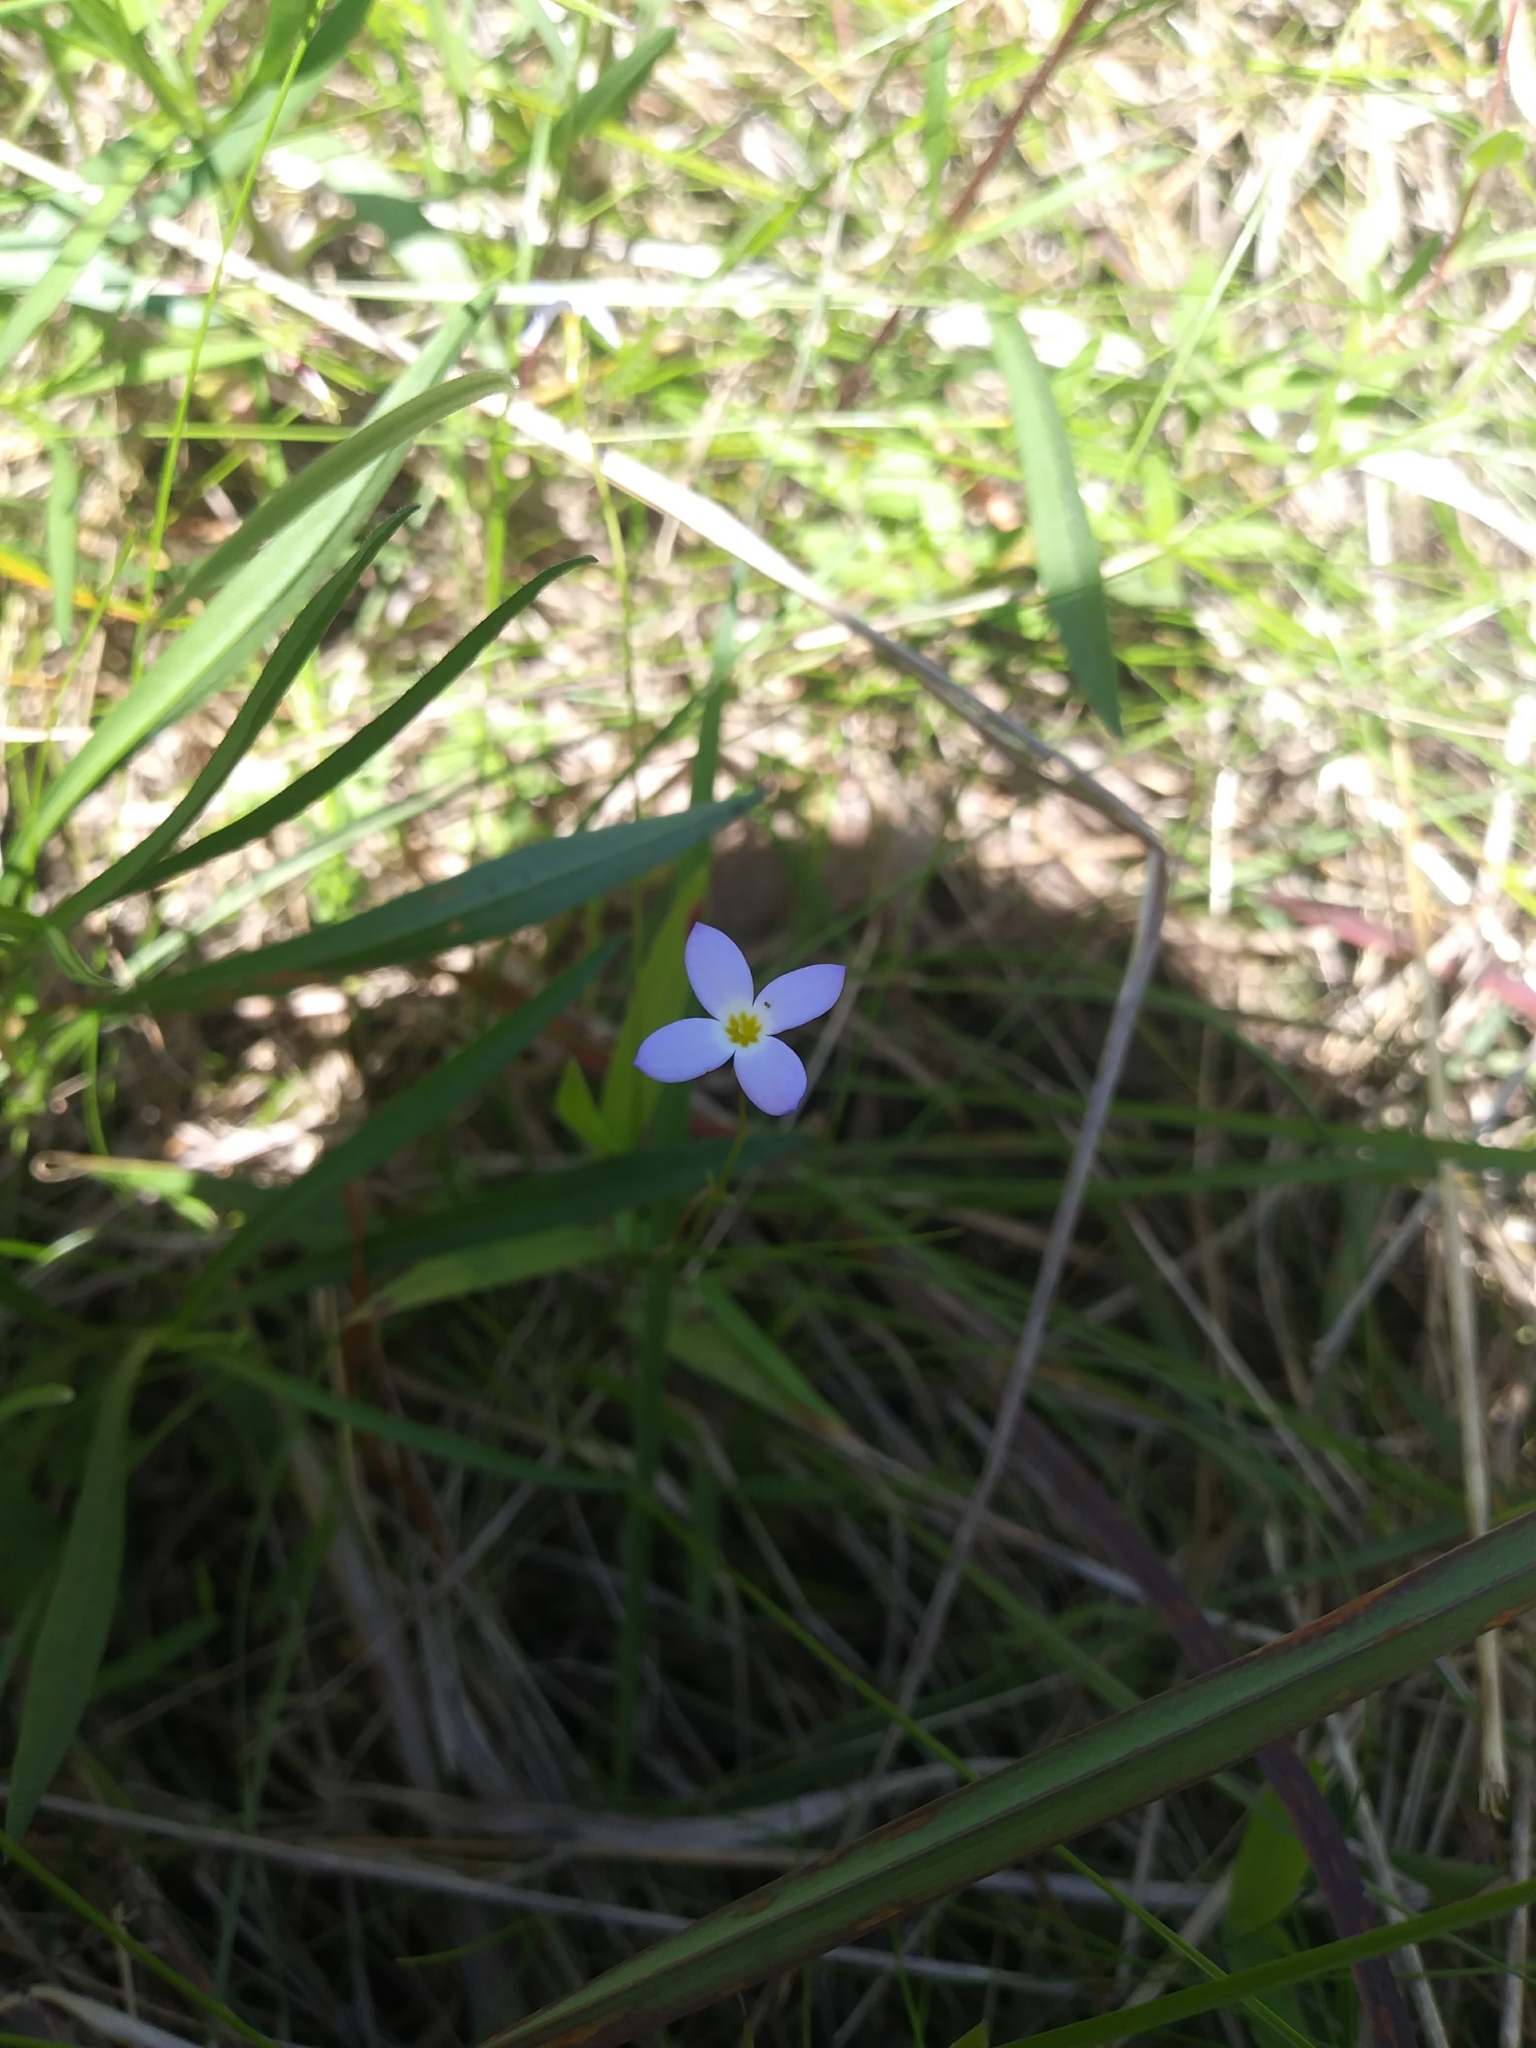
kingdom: Plantae
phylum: Tracheophyta
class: Magnoliopsida
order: Gentianales
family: Rubiaceae
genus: Houstonia
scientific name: Houstonia caerulea
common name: Bluets
